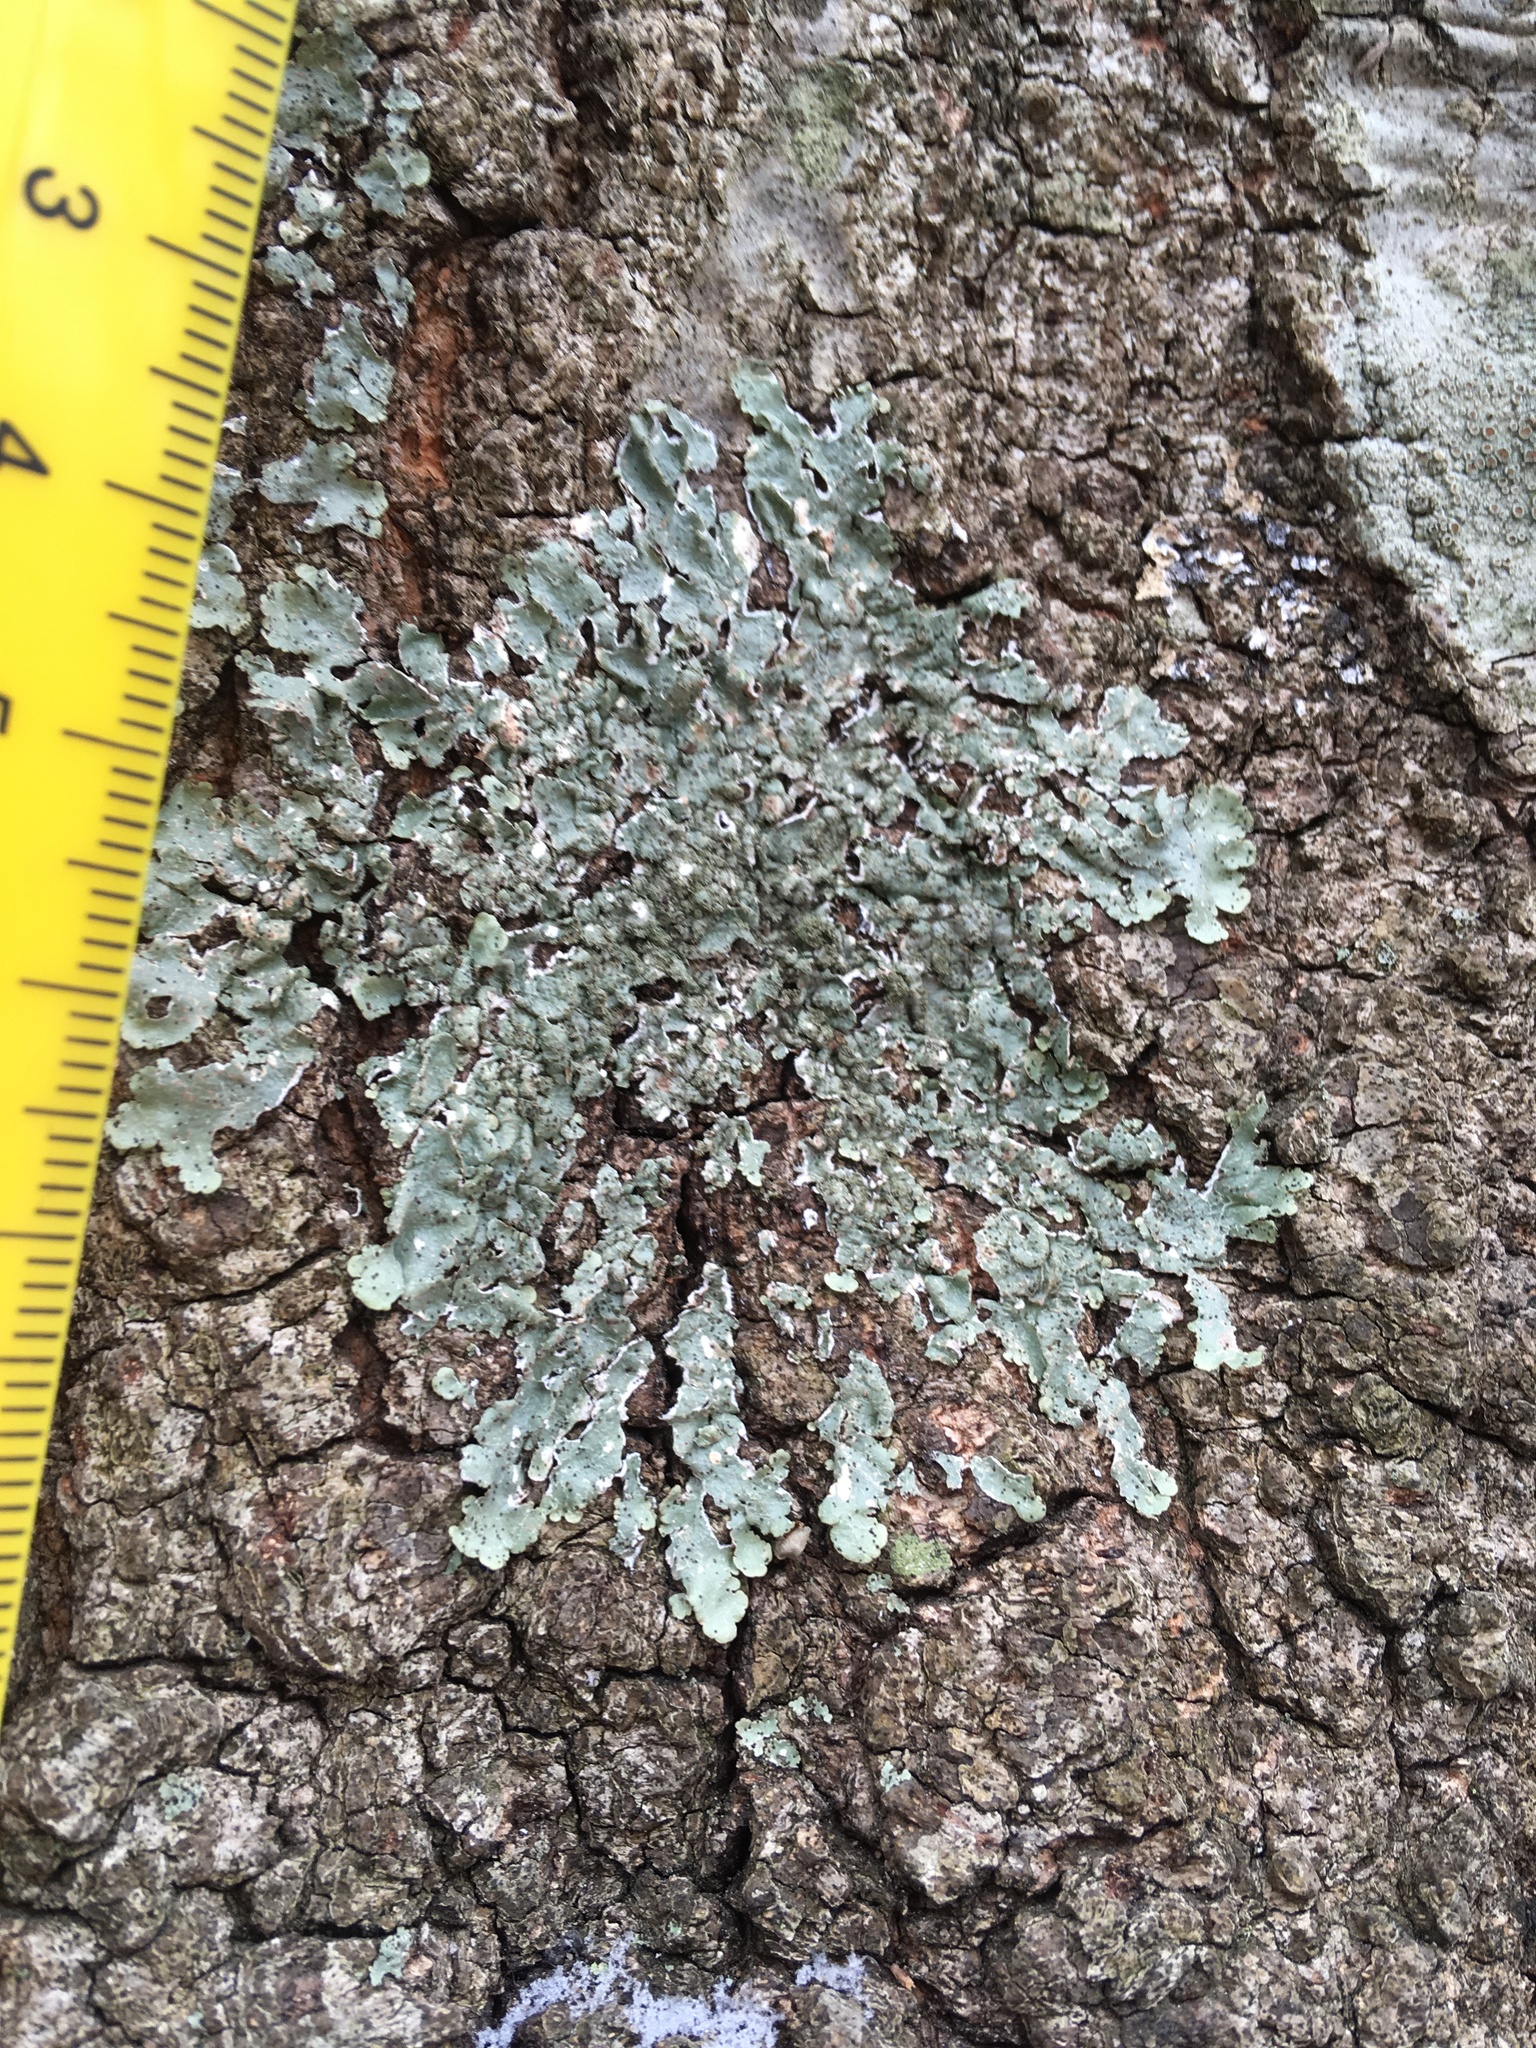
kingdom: Fungi
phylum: Ascomycota
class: Lecanoromycetes
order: Lecanorales
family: Parmeliaceae
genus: Punctelia
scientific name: Punctelia rudecta
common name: Rough speckled shield lichen
